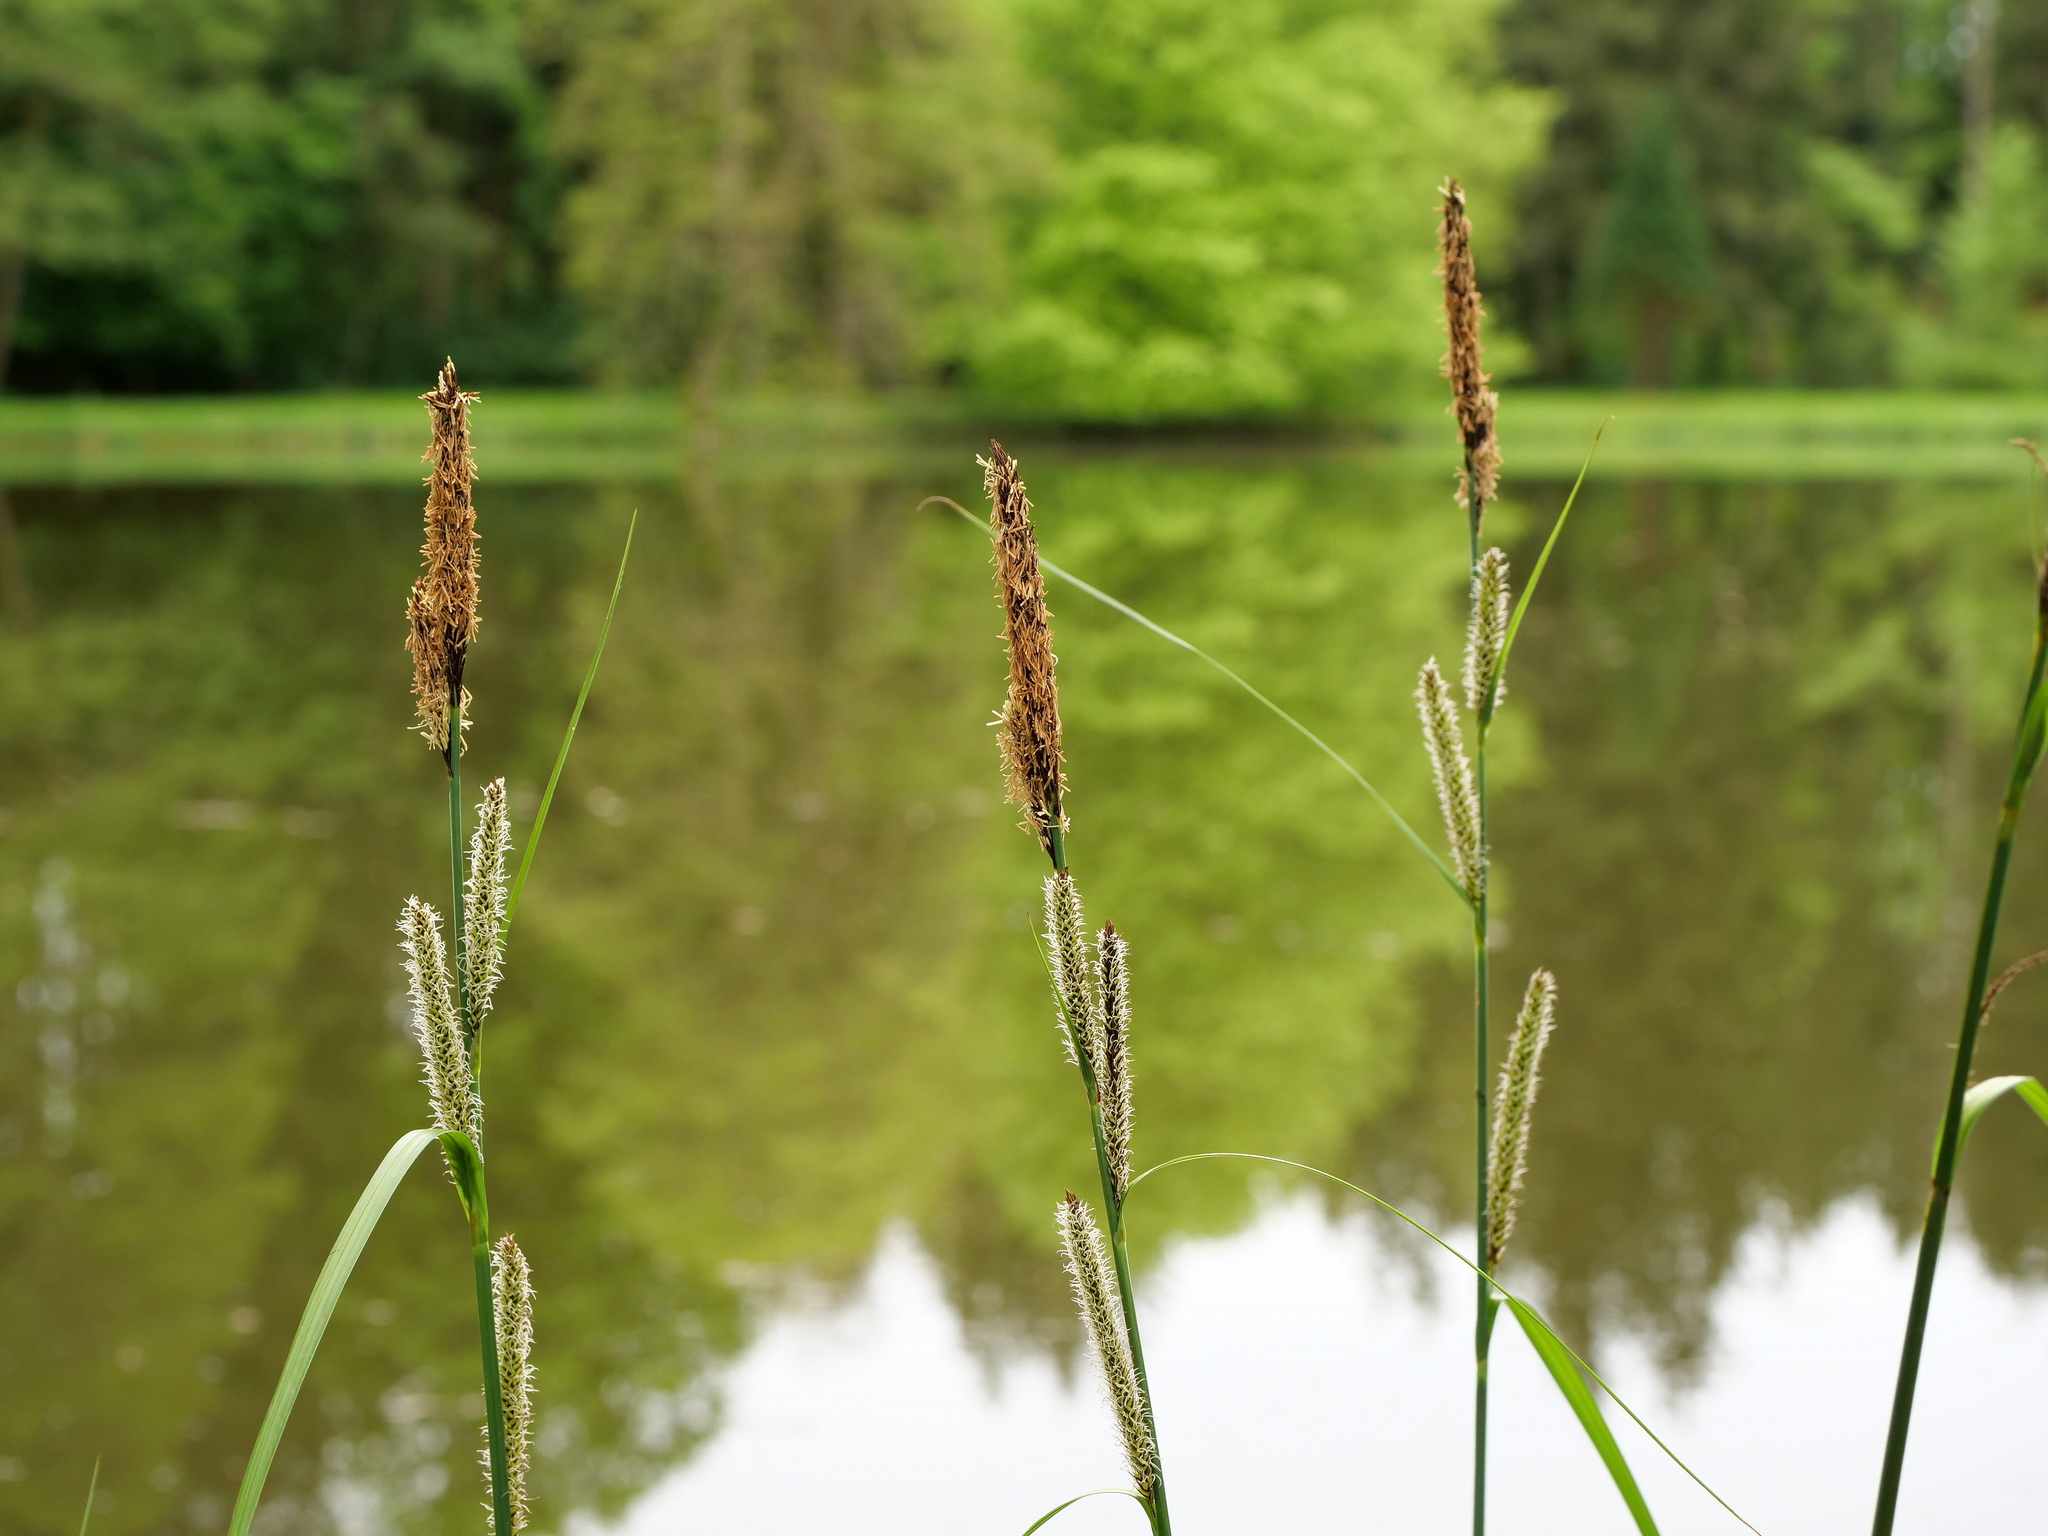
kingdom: Plantae
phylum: Tracheophyta
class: Liliopsida
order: Poales
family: Cyperaceae
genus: Carex
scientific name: Carex acutiformis
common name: Lesser pond-sedge
